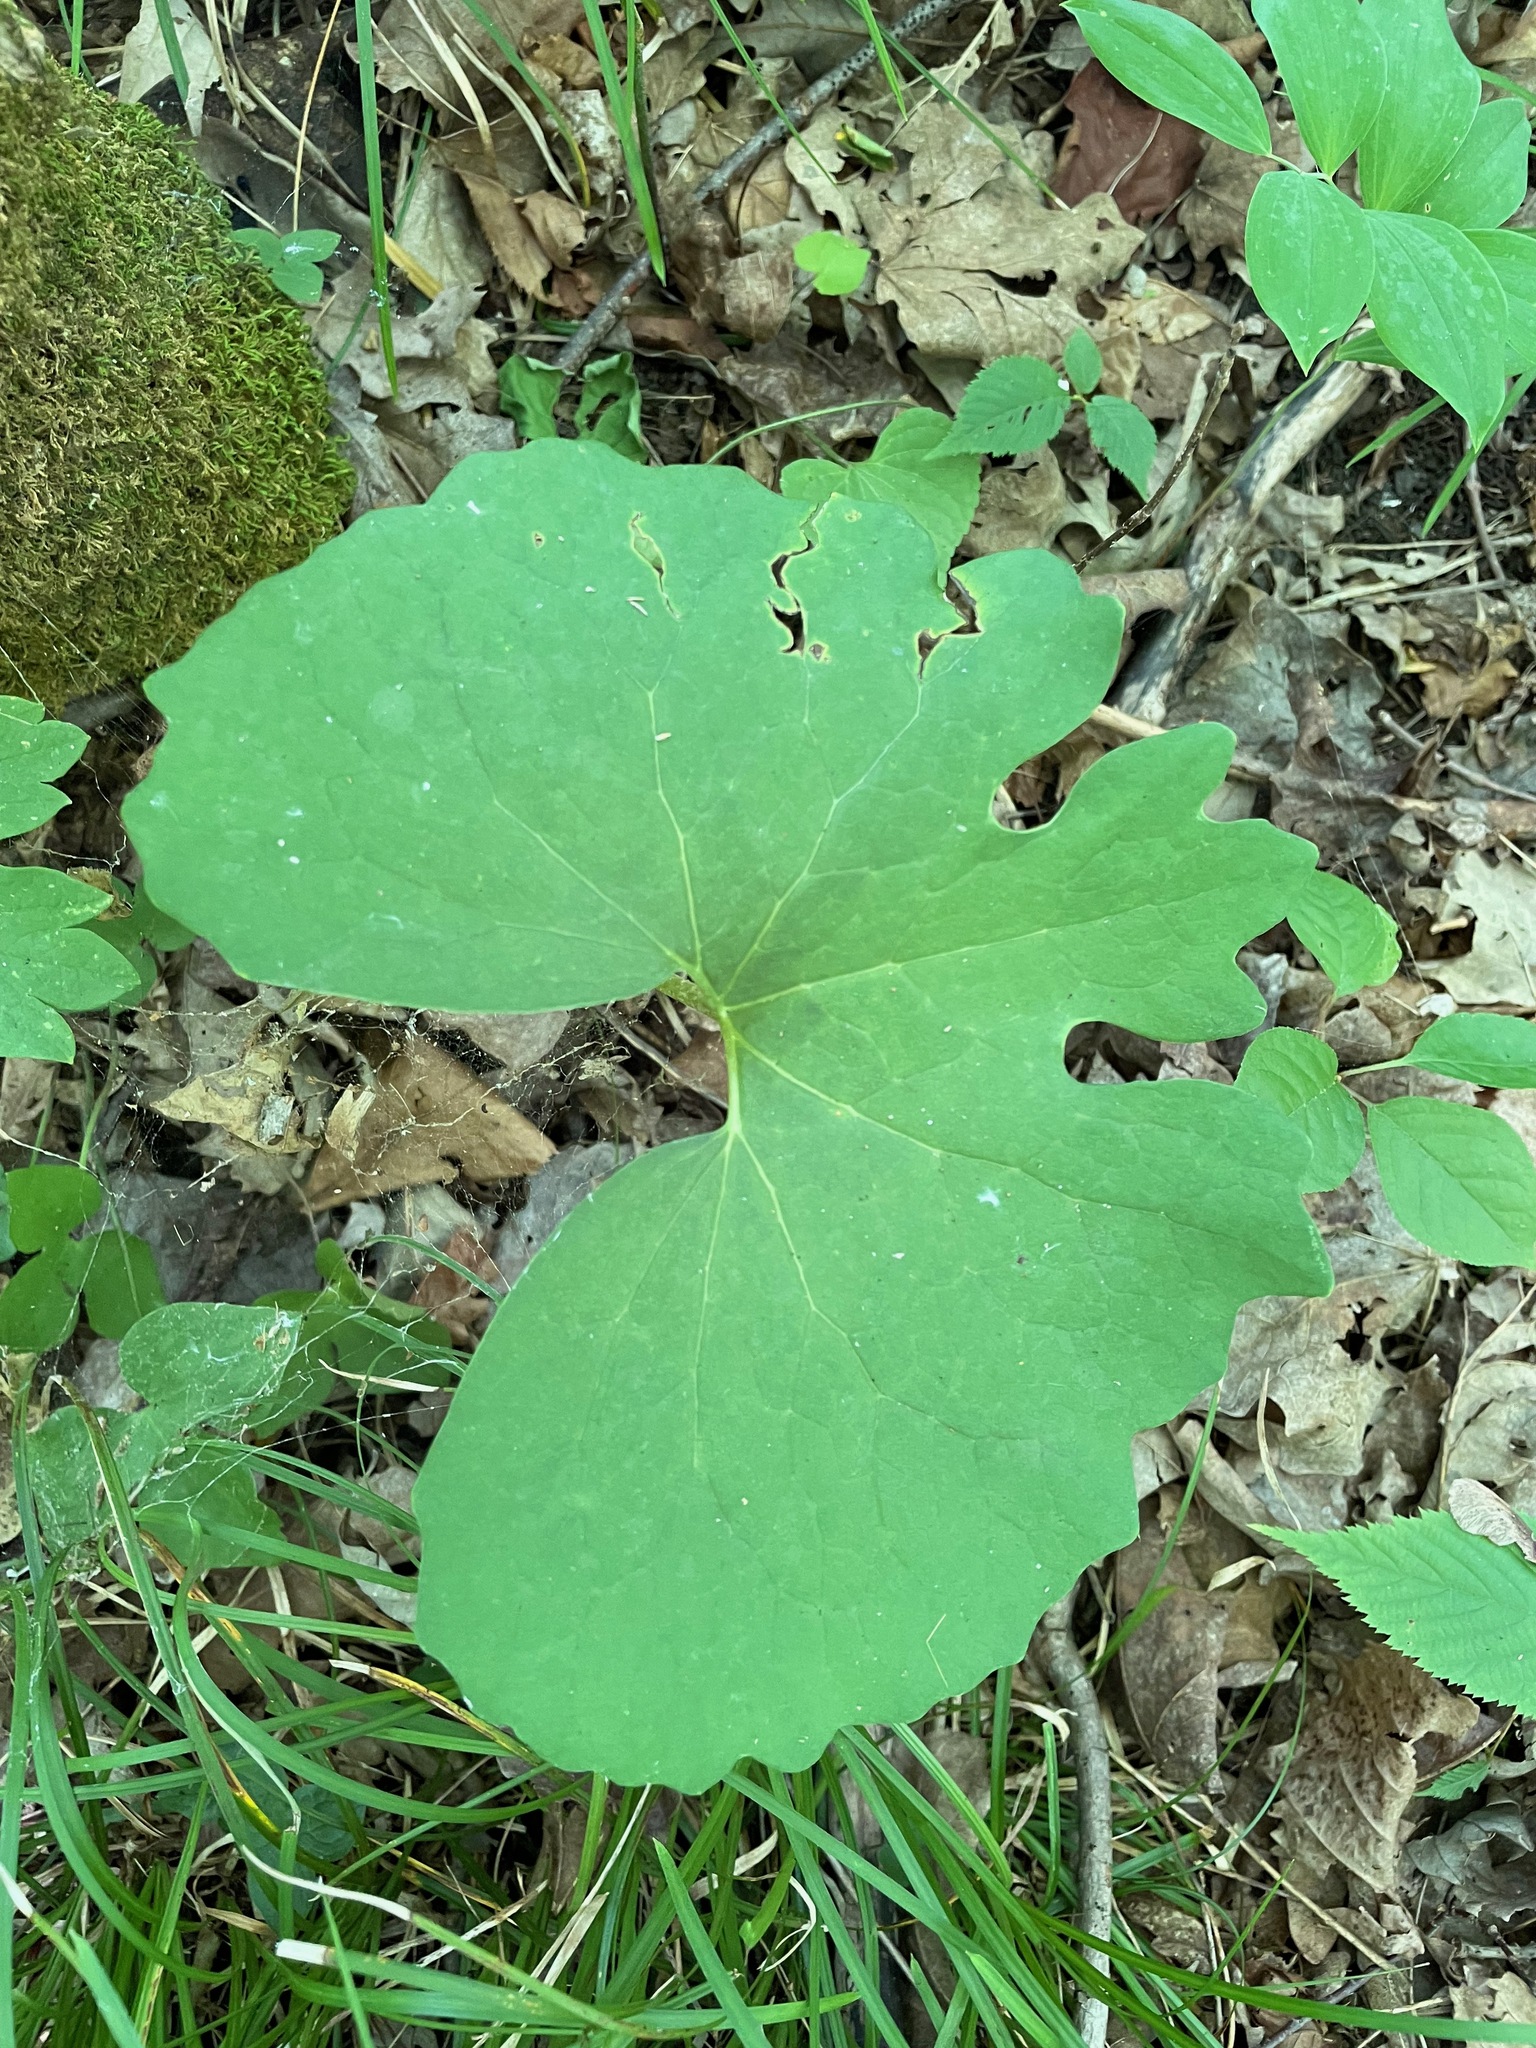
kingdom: Plantae
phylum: Tracheophyta
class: Magnoliopsida
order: Ranunculales
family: Papaveraceae
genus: Sanguinaria
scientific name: Sanguinaria canadensis
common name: Bloodroot
